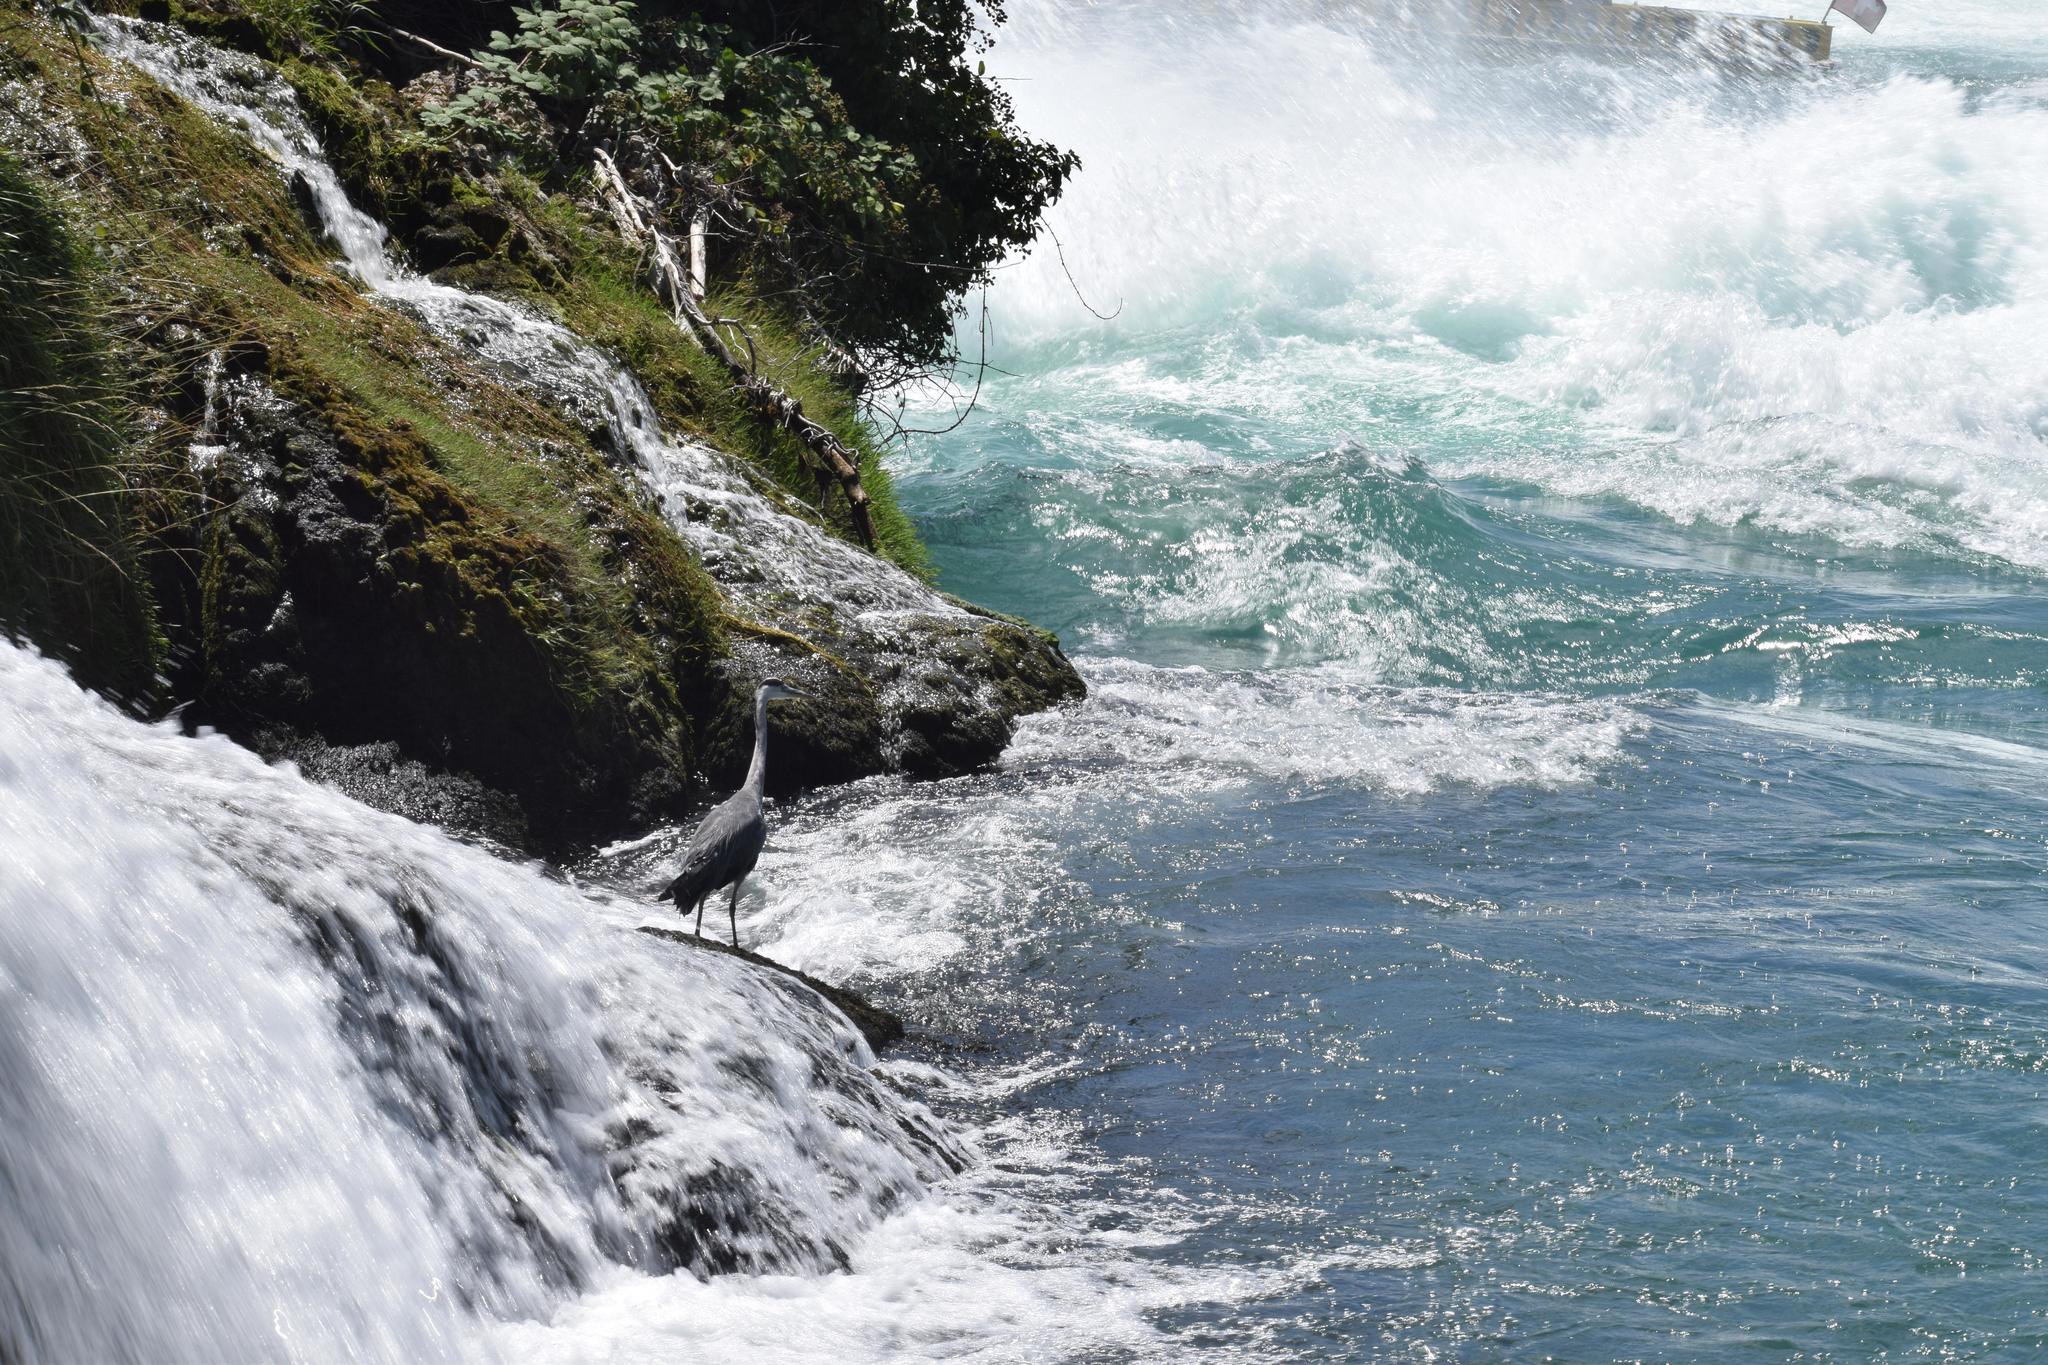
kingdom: Animalia
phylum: Chordata
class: Aves
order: Pelecaniformes
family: Ardeidae
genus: Ardea
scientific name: Ardea cinerea
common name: Grey heron
